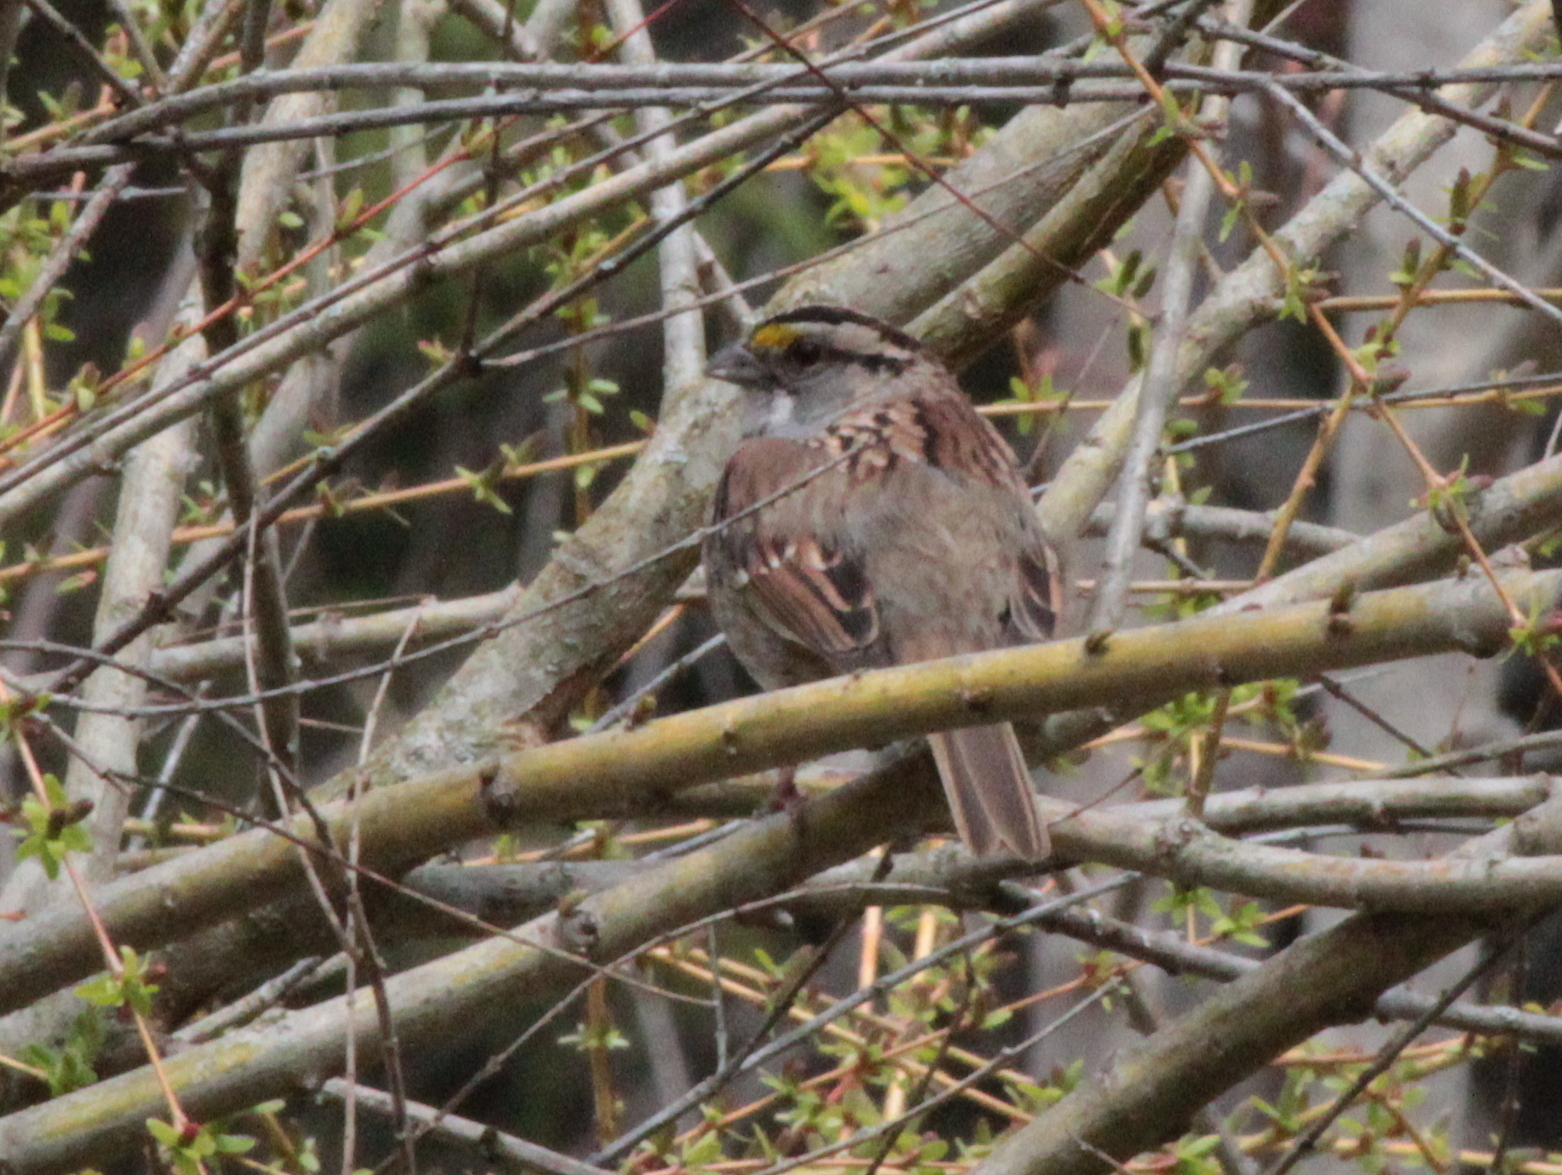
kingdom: Animalia
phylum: Chordata
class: Aves
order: Passeriformes
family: Passerellidae
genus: Zonotrichia
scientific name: Zonotrichia albicollis
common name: White-throated sparrow
